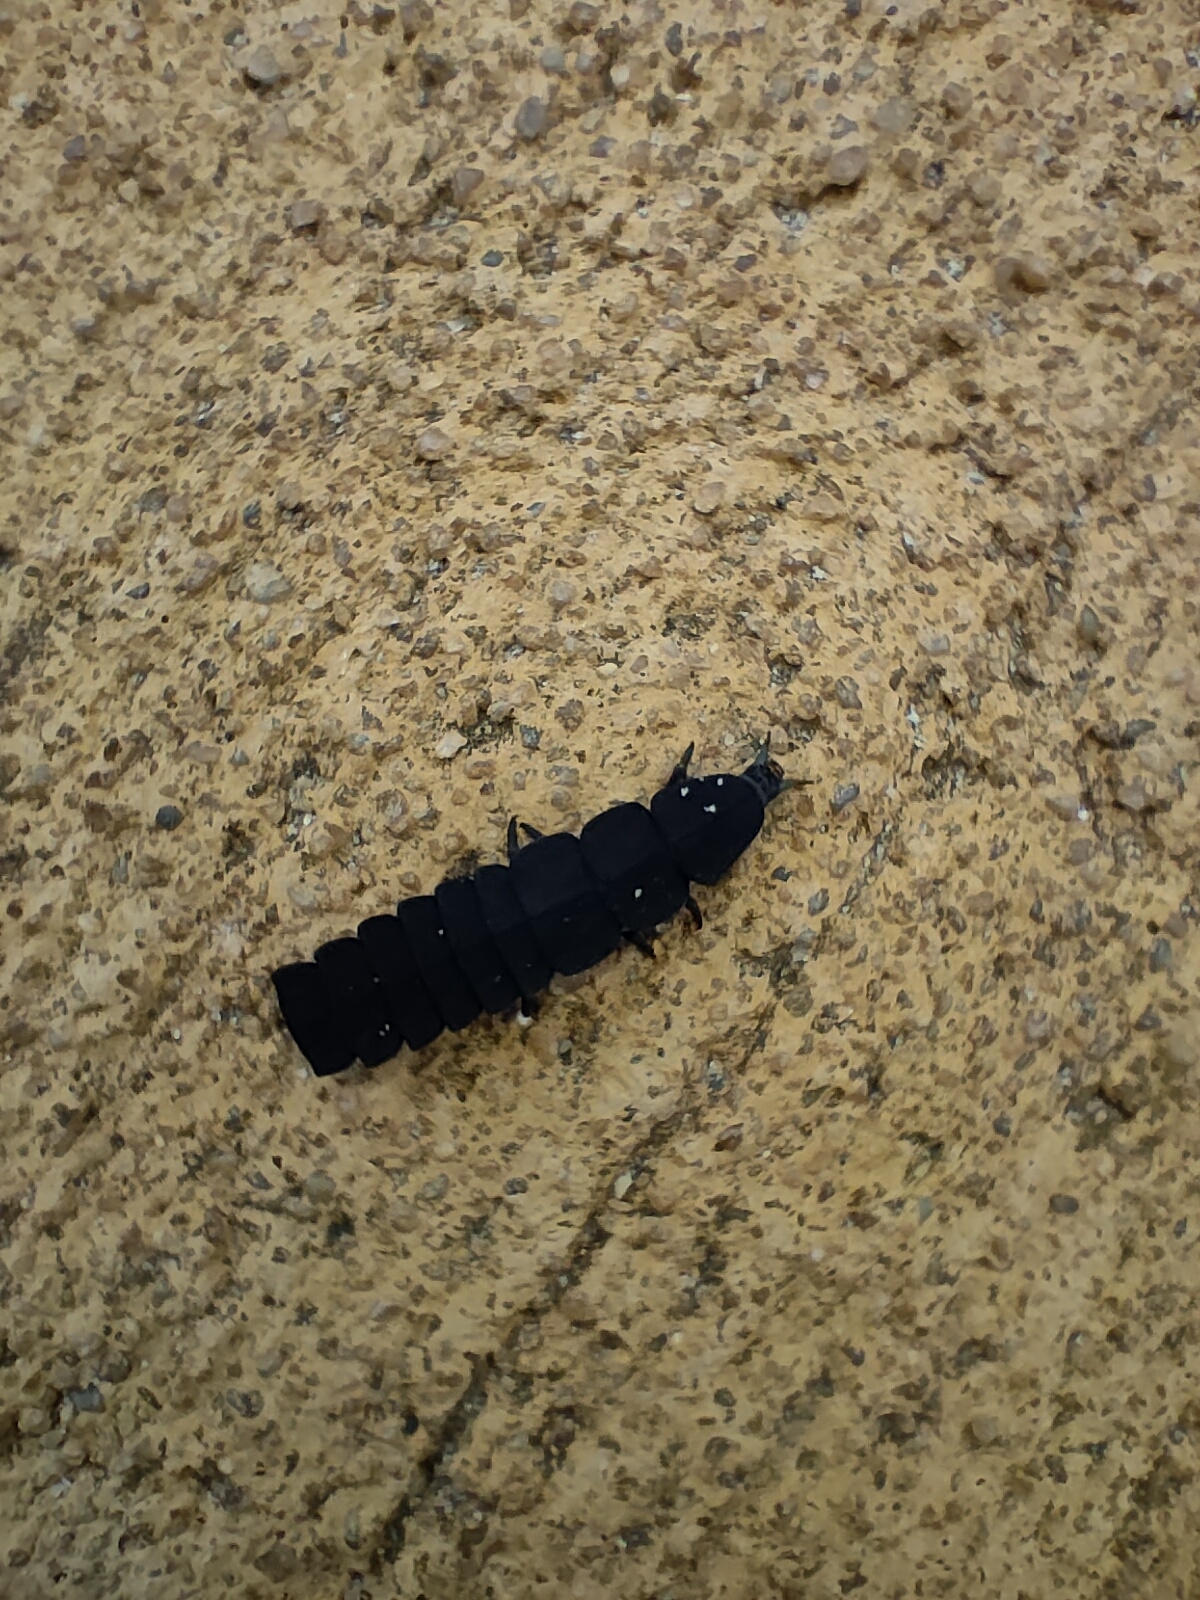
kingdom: Animalia
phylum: Arthropoda
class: Insecta
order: Coleoptera
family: Lampyridae
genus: Nyctophila
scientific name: Nyctophila reichii
